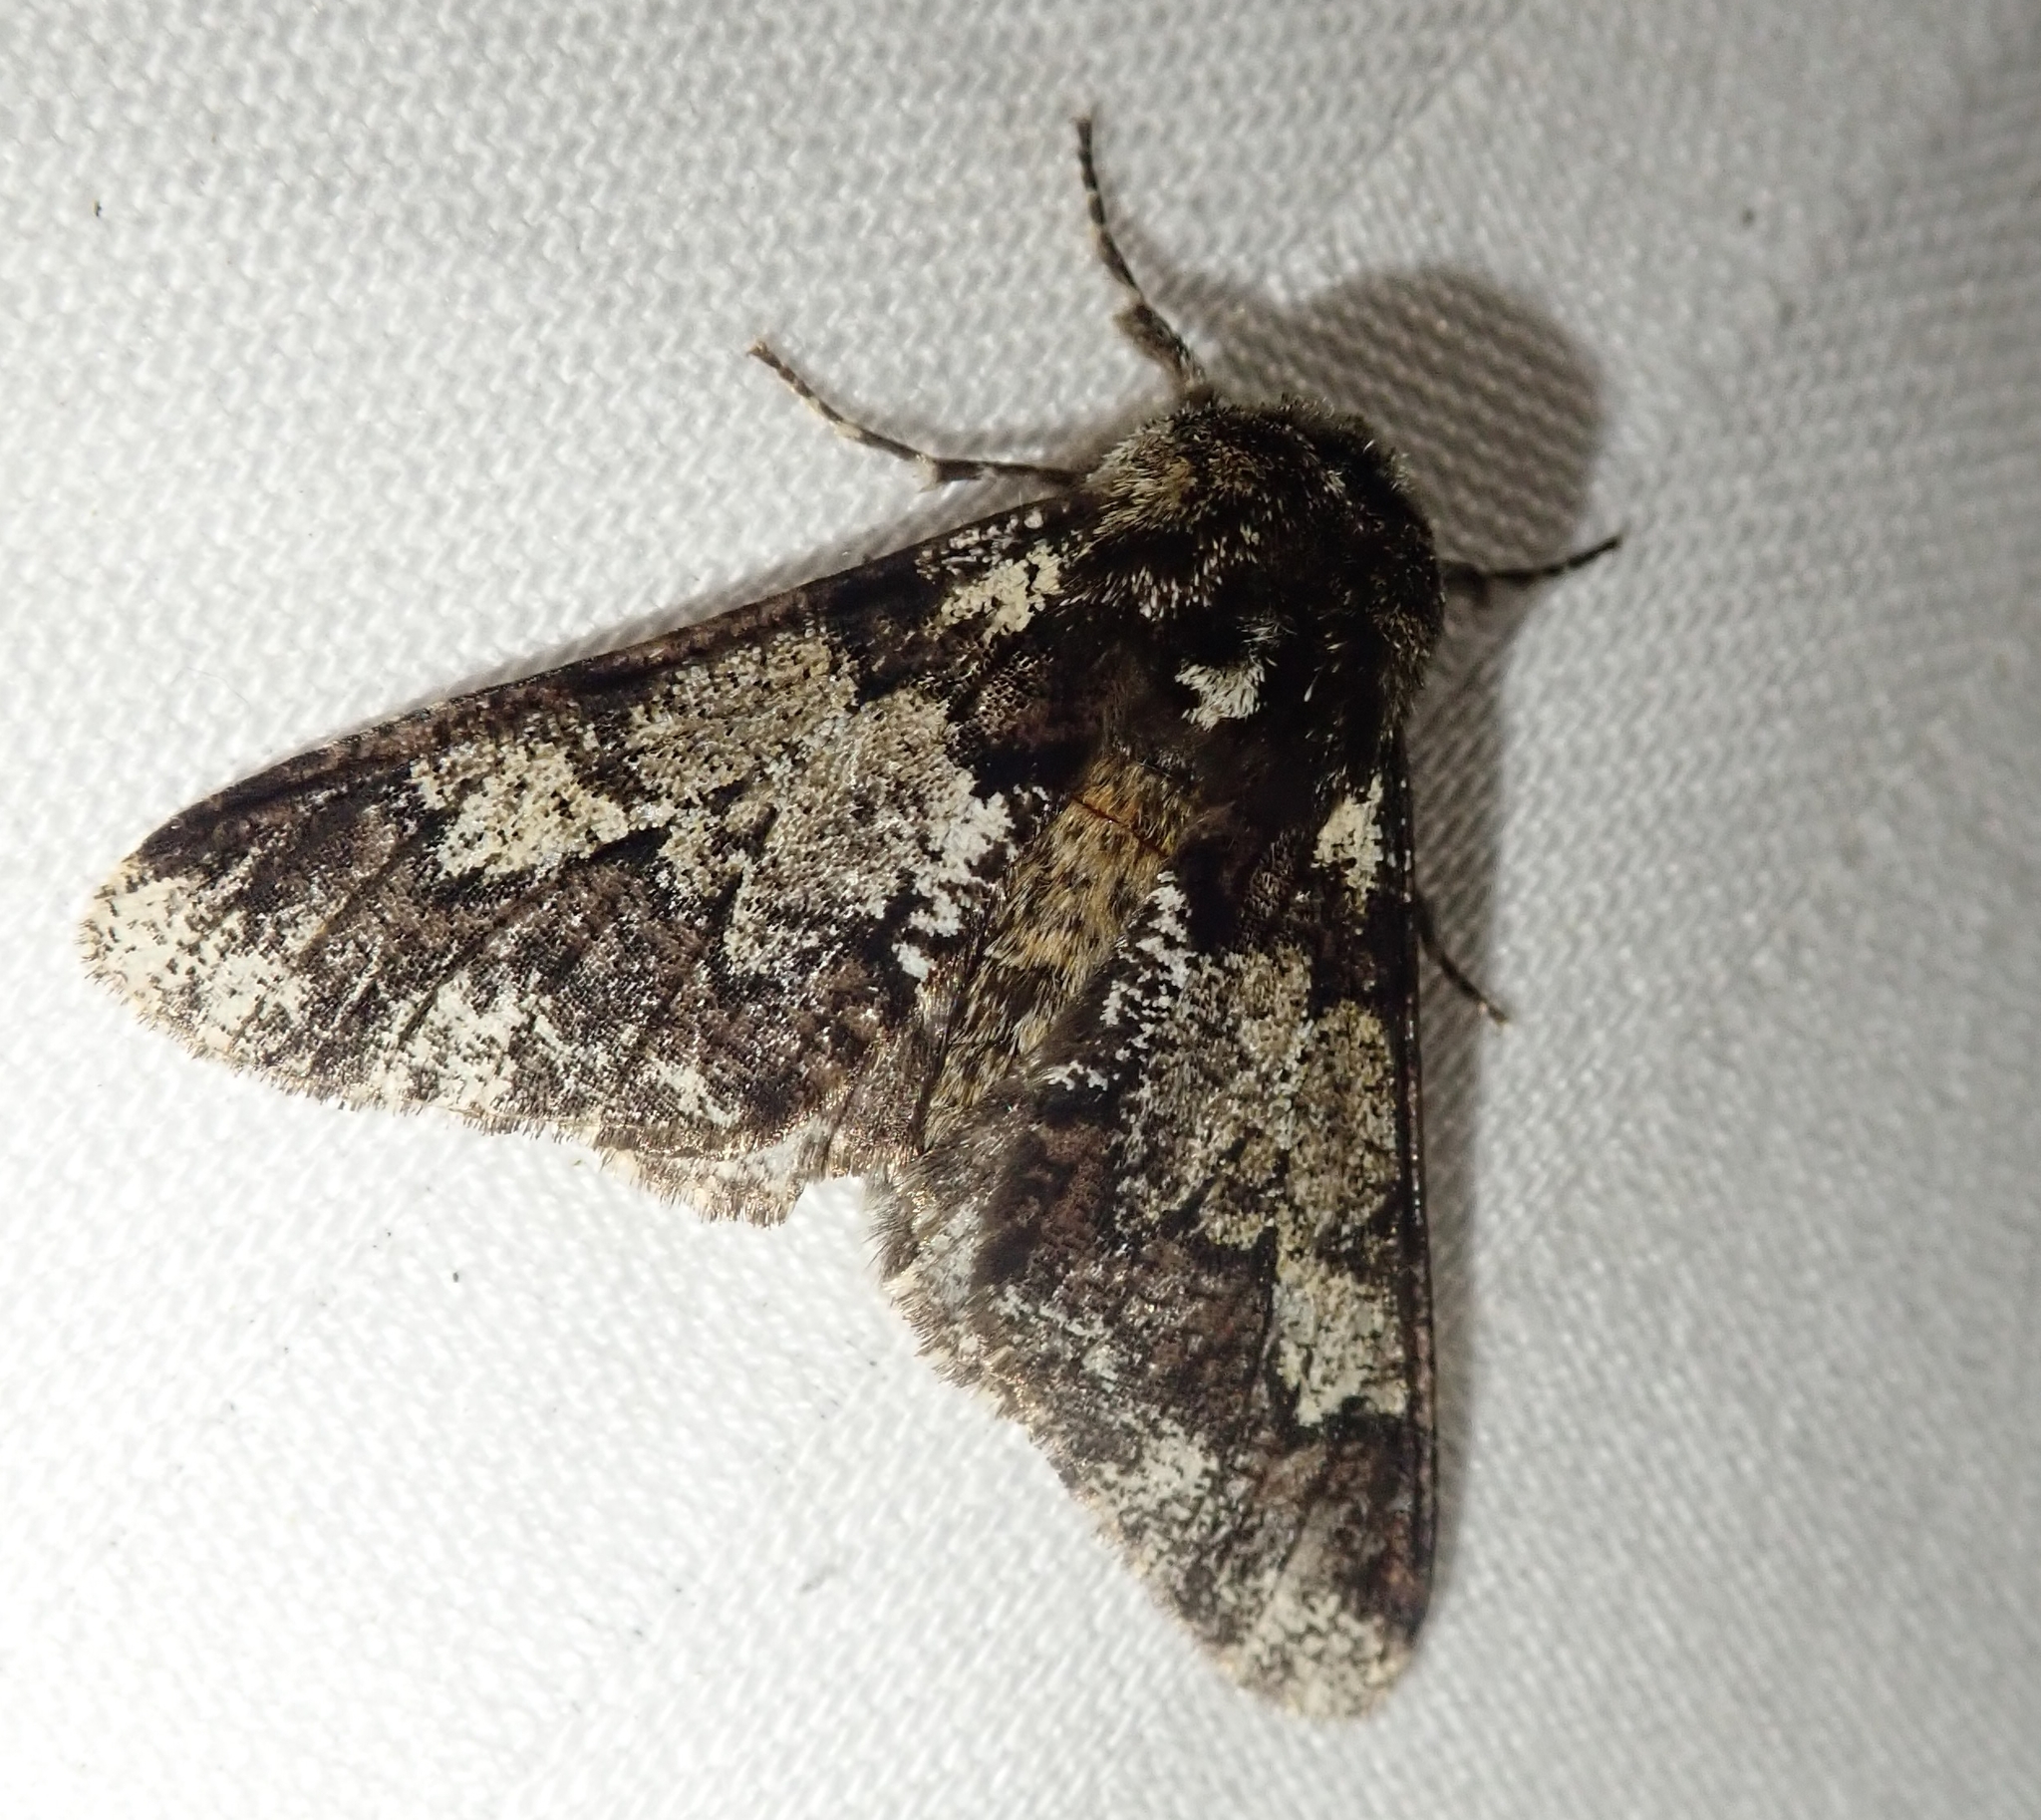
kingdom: Animalia
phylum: Arthropoda
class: Insecta
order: Lepidoptera
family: Geometridae
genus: Biston
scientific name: Biston strataria
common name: Oak beauty
